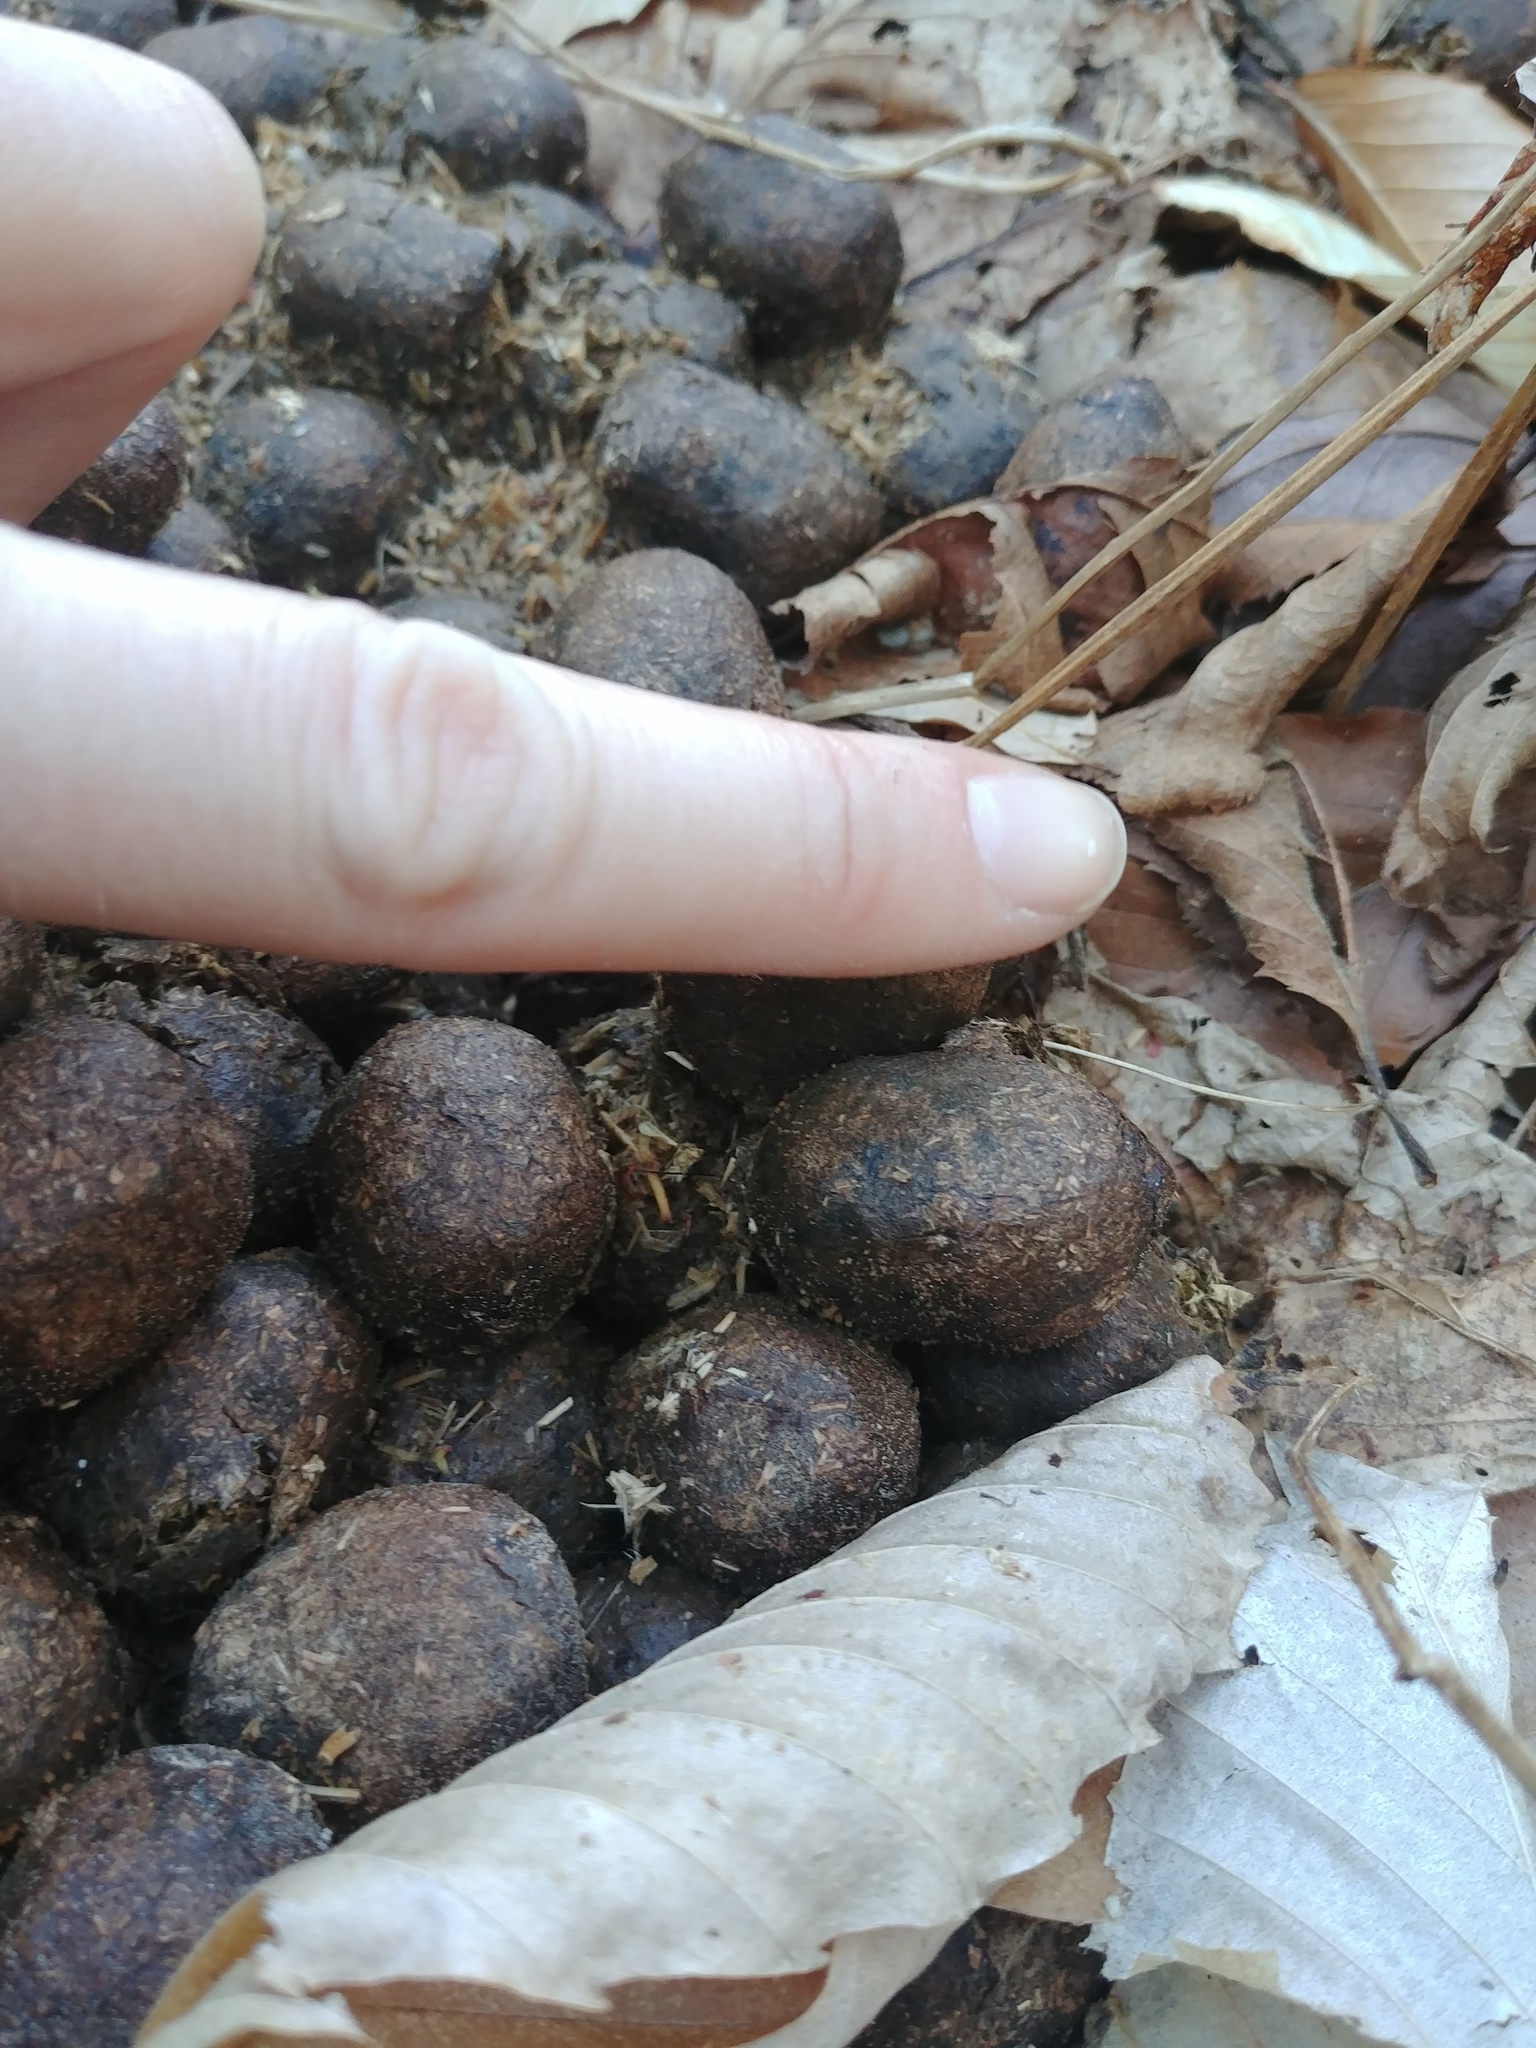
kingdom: Animalia
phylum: Chordata
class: Mammalia
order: Artiodactyla
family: Cervidae
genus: Alces
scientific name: Alces alces
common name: Moose
